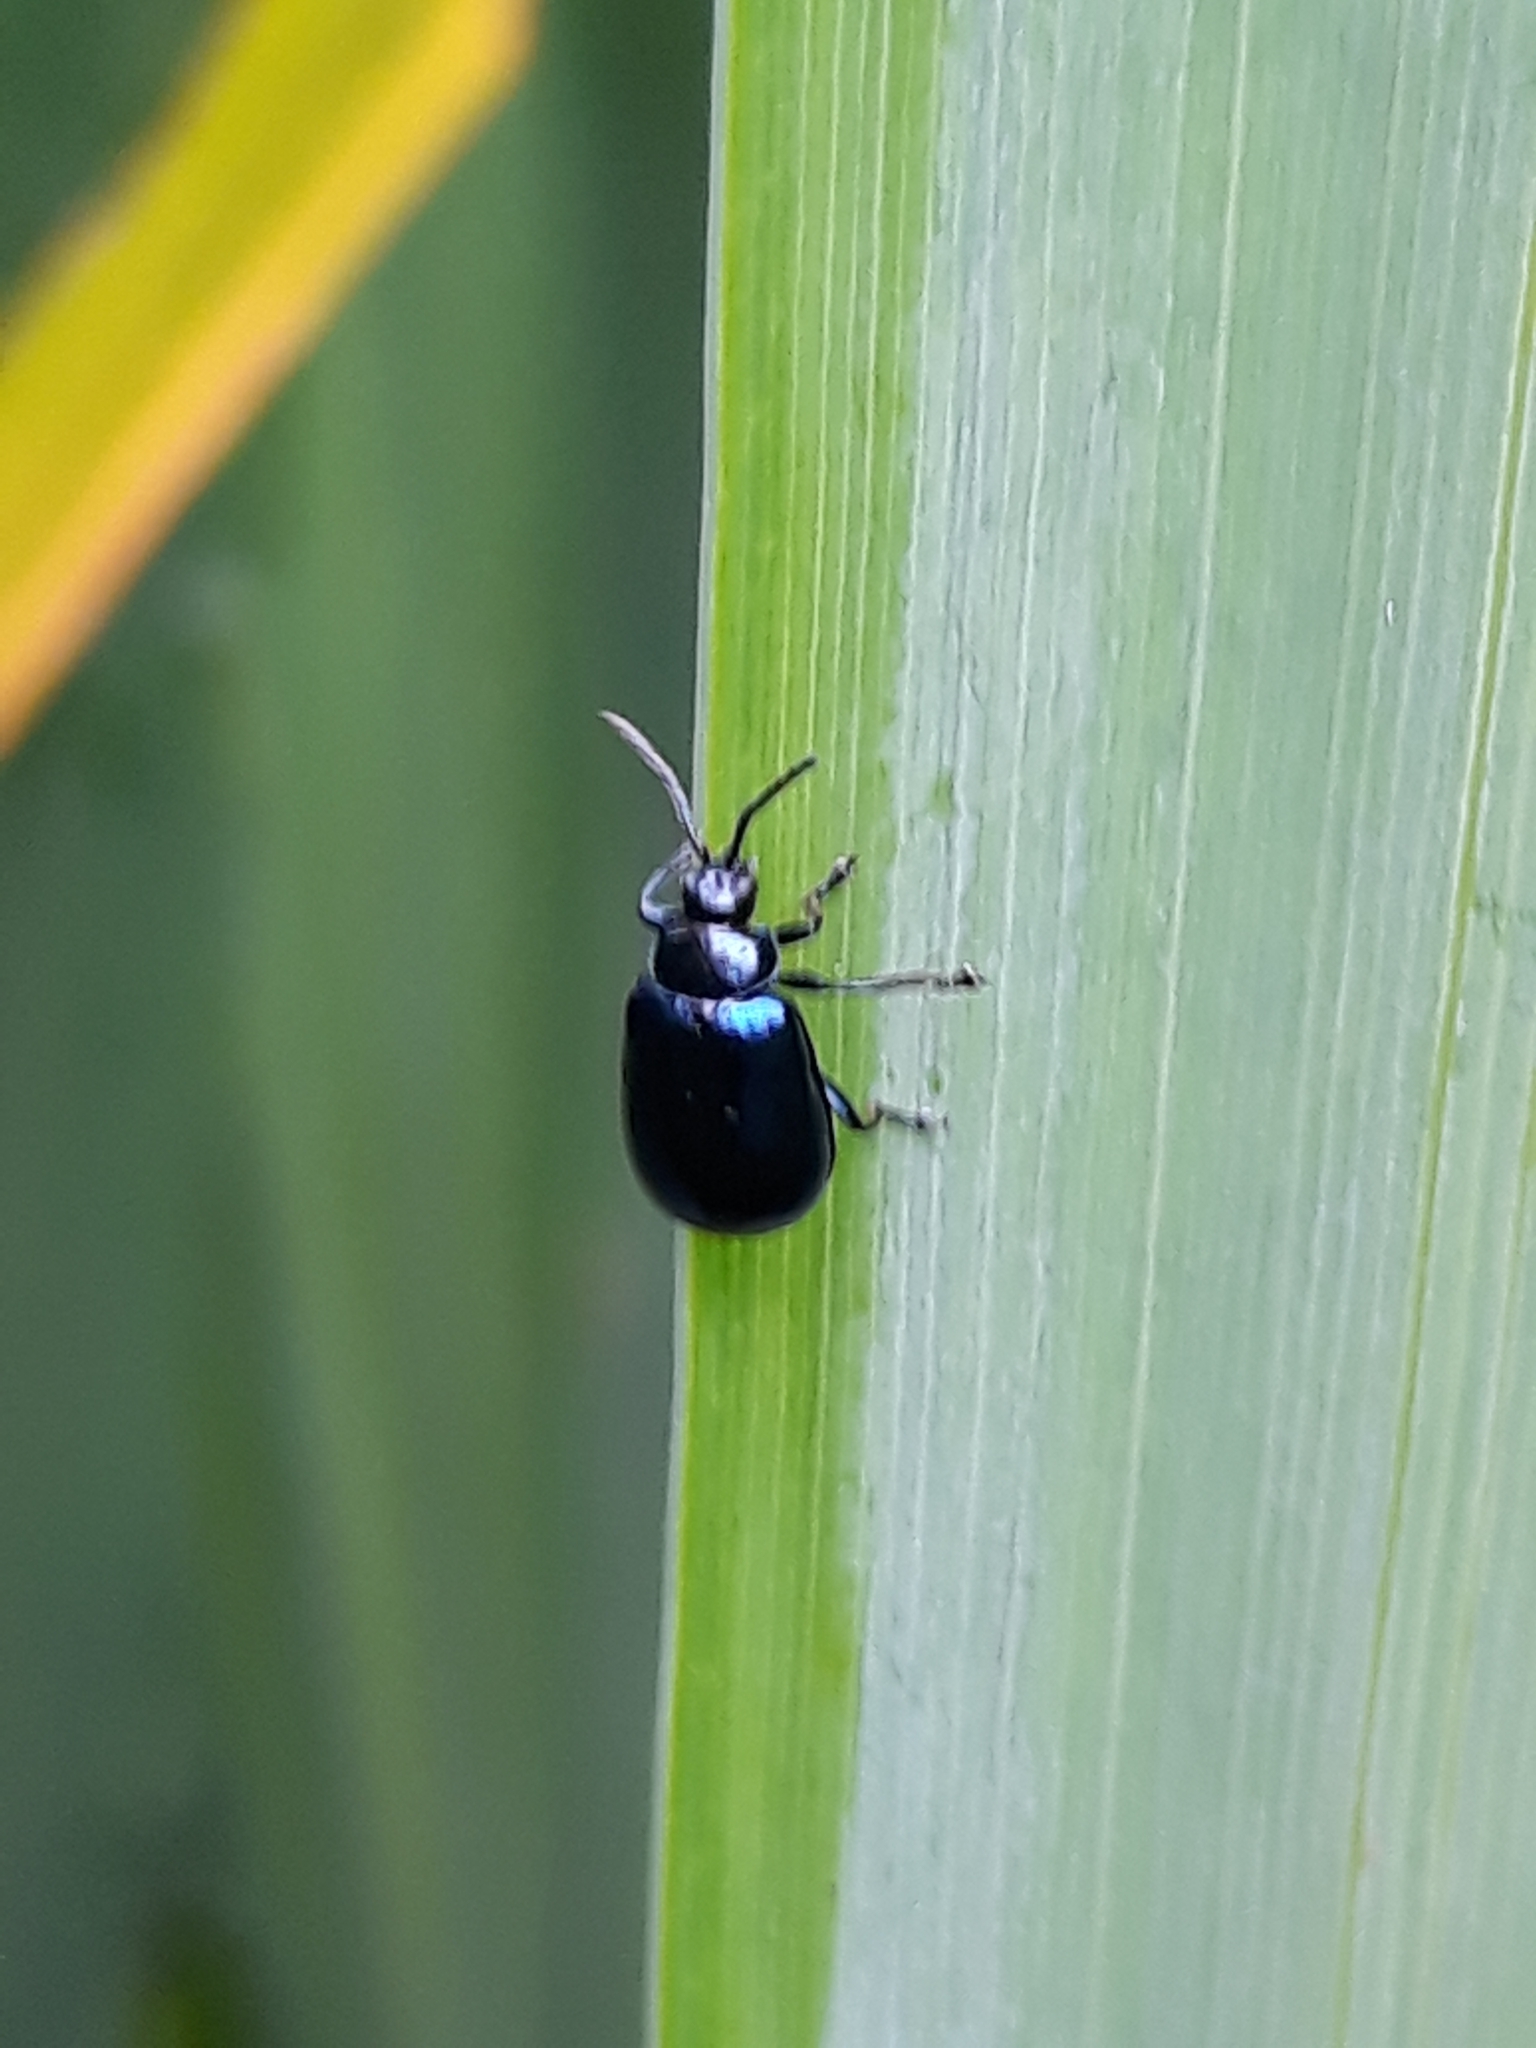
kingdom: Animalia
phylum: Arthropoda
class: Insecta
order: Coleoptera
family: Chrysomelidae
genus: Agelastica
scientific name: Agelastica alni
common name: Alder leaf beetle
